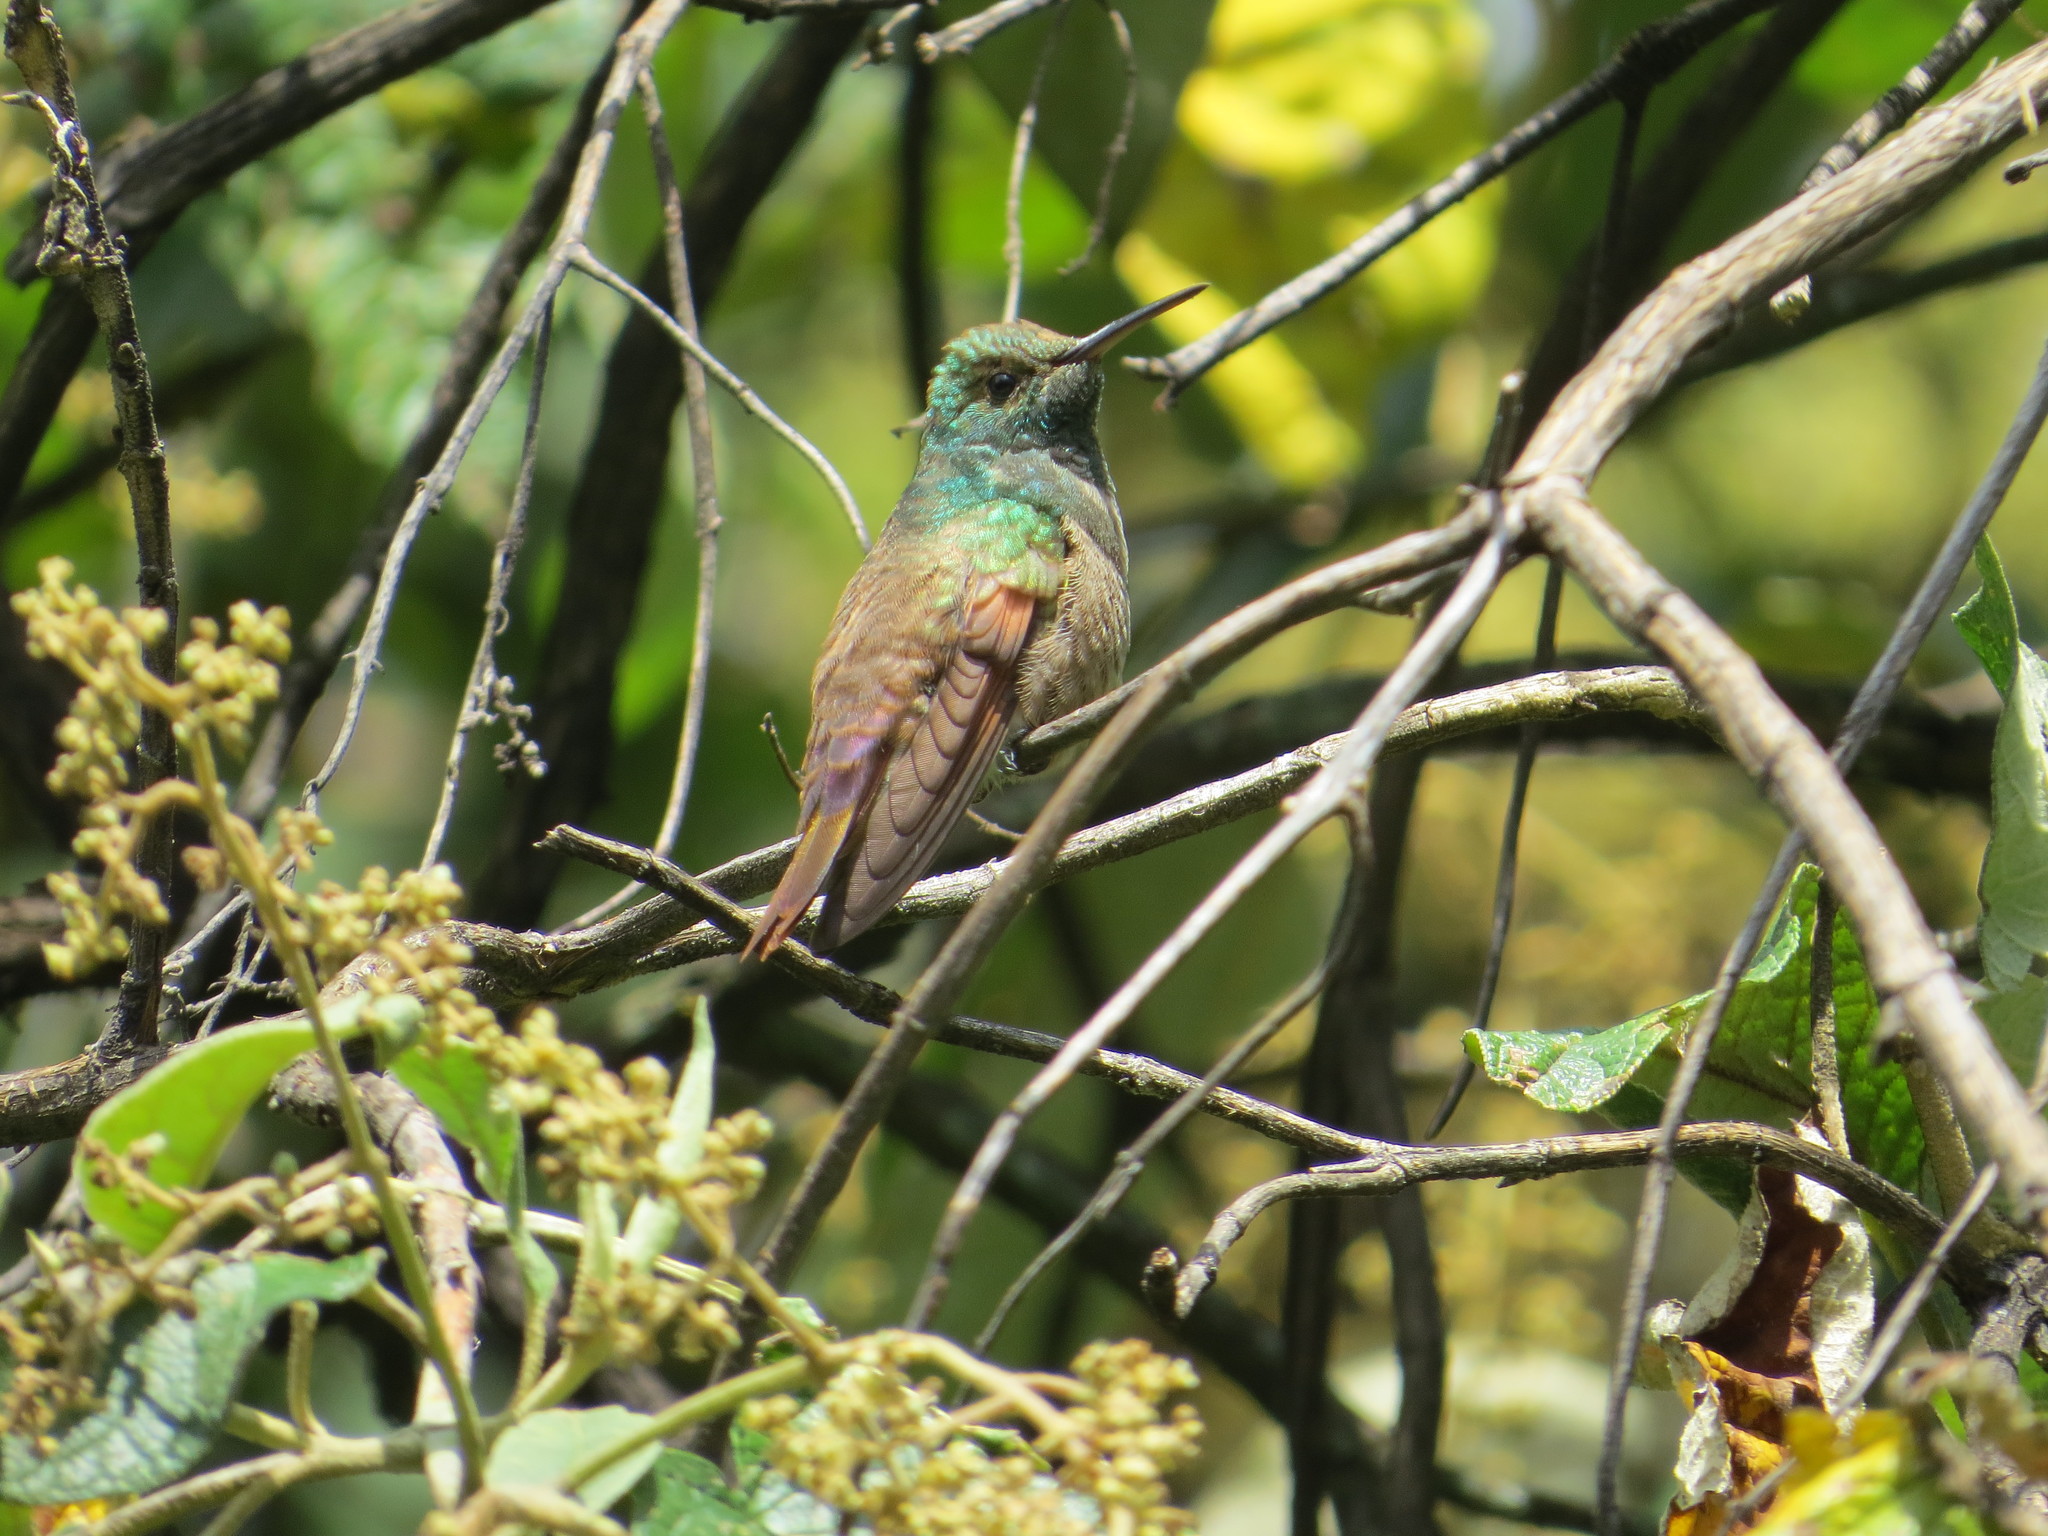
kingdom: Animalia
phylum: Chordata
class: Aves
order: Apodiformes
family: Trochilidae
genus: Saucerottia
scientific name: Saucerottia beryllina
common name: Berylline hummingbird
